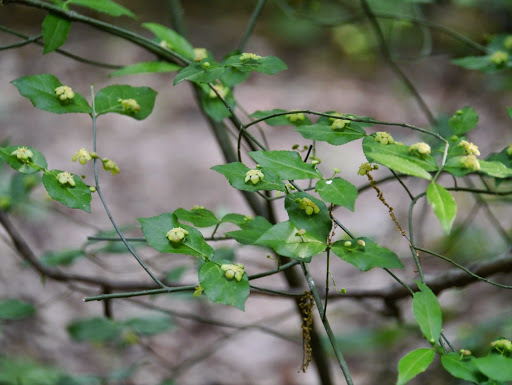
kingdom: Plantae
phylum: Tracheophyta
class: Magnoliopsida
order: Celastrales
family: Celastraceae
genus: Euonymus
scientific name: Euonymus americanus
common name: Bursting-heart
